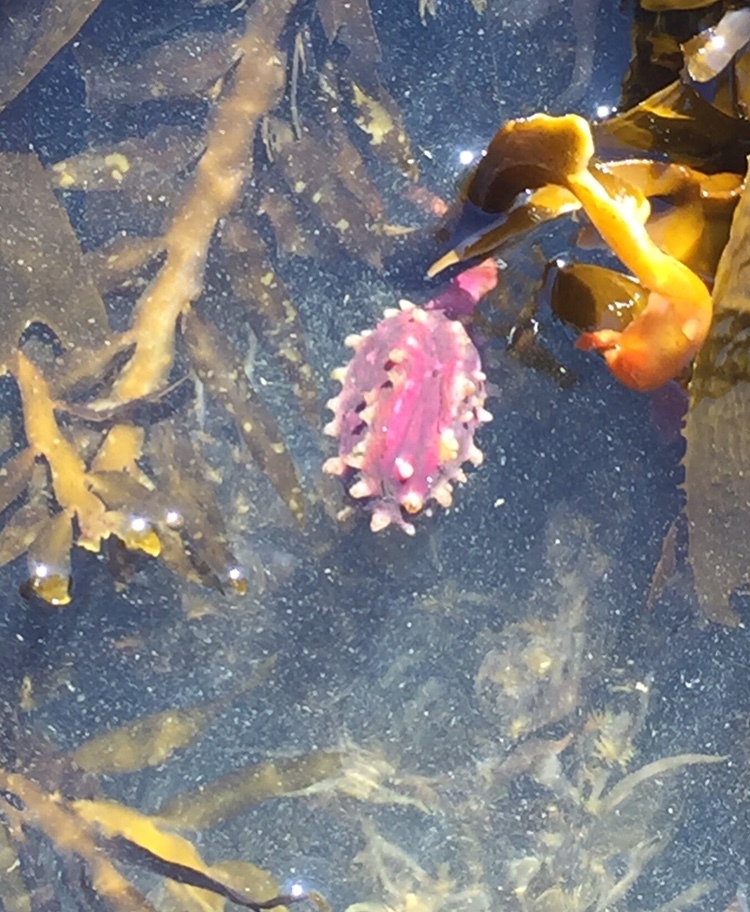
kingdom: Chromista
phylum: Ochrophyta
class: Phaeophyceae
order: Fucales
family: Sargassaceae
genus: Carpophyllum
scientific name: Carpophyllum maschalocarpum
